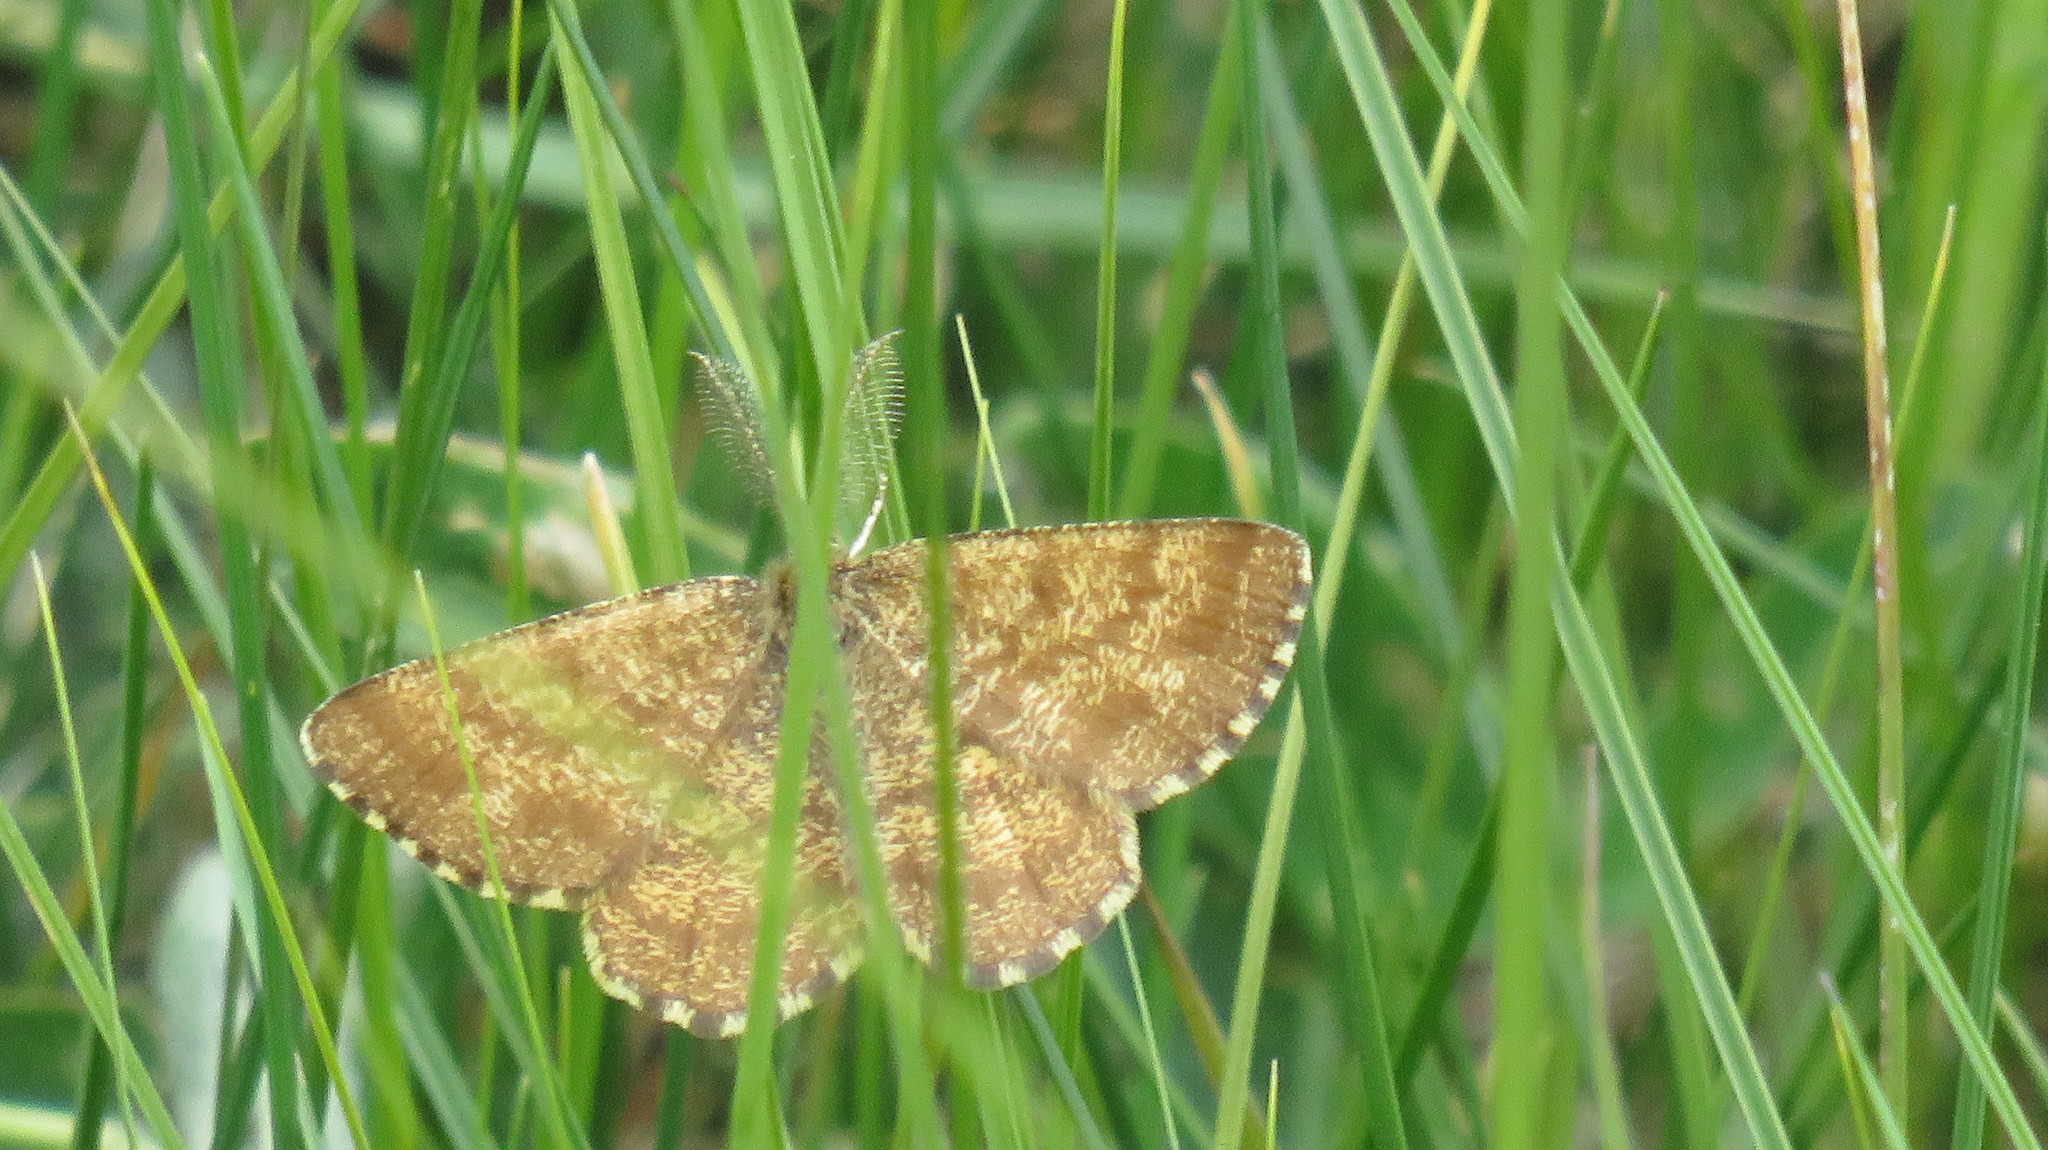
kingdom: Animalia
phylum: Arthropoda
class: Insecta
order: Lepidoptera
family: Geometridae
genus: Ematurga
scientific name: Ematurga atomaria
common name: Common heath
